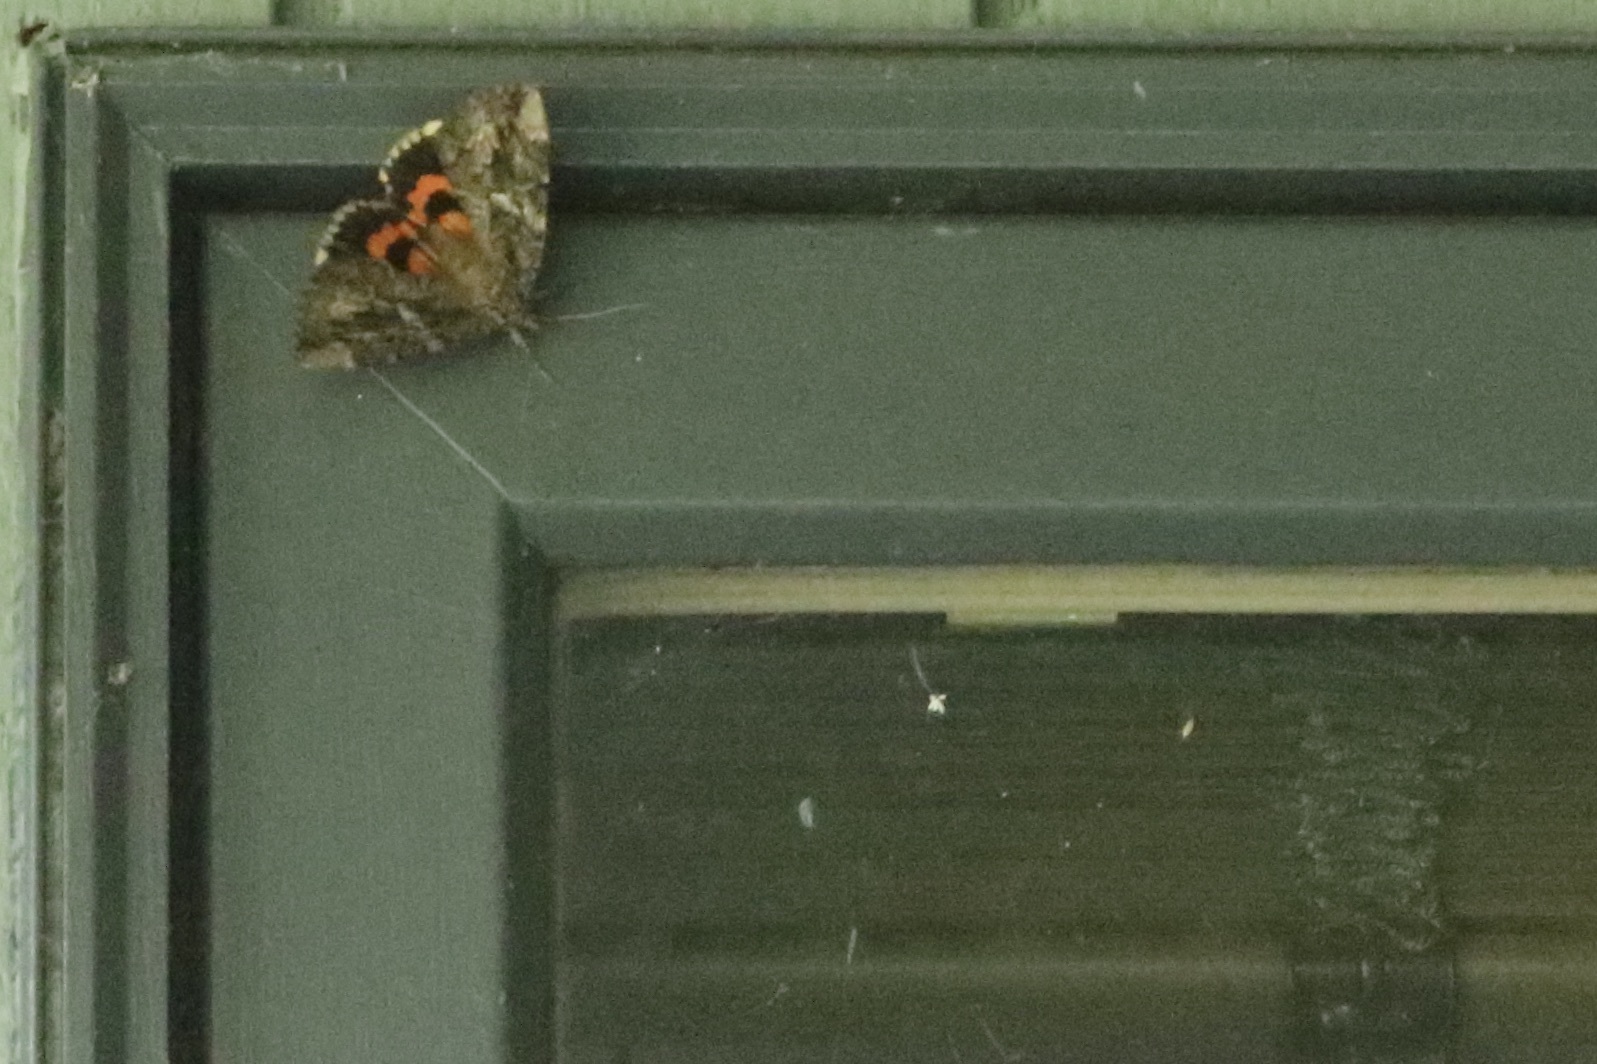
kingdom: Animalia
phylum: Arthropoda
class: Insecta
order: Lepidoptera
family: Erebidae
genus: Catocala
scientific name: Catocala innubens
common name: Betrothed underwing
